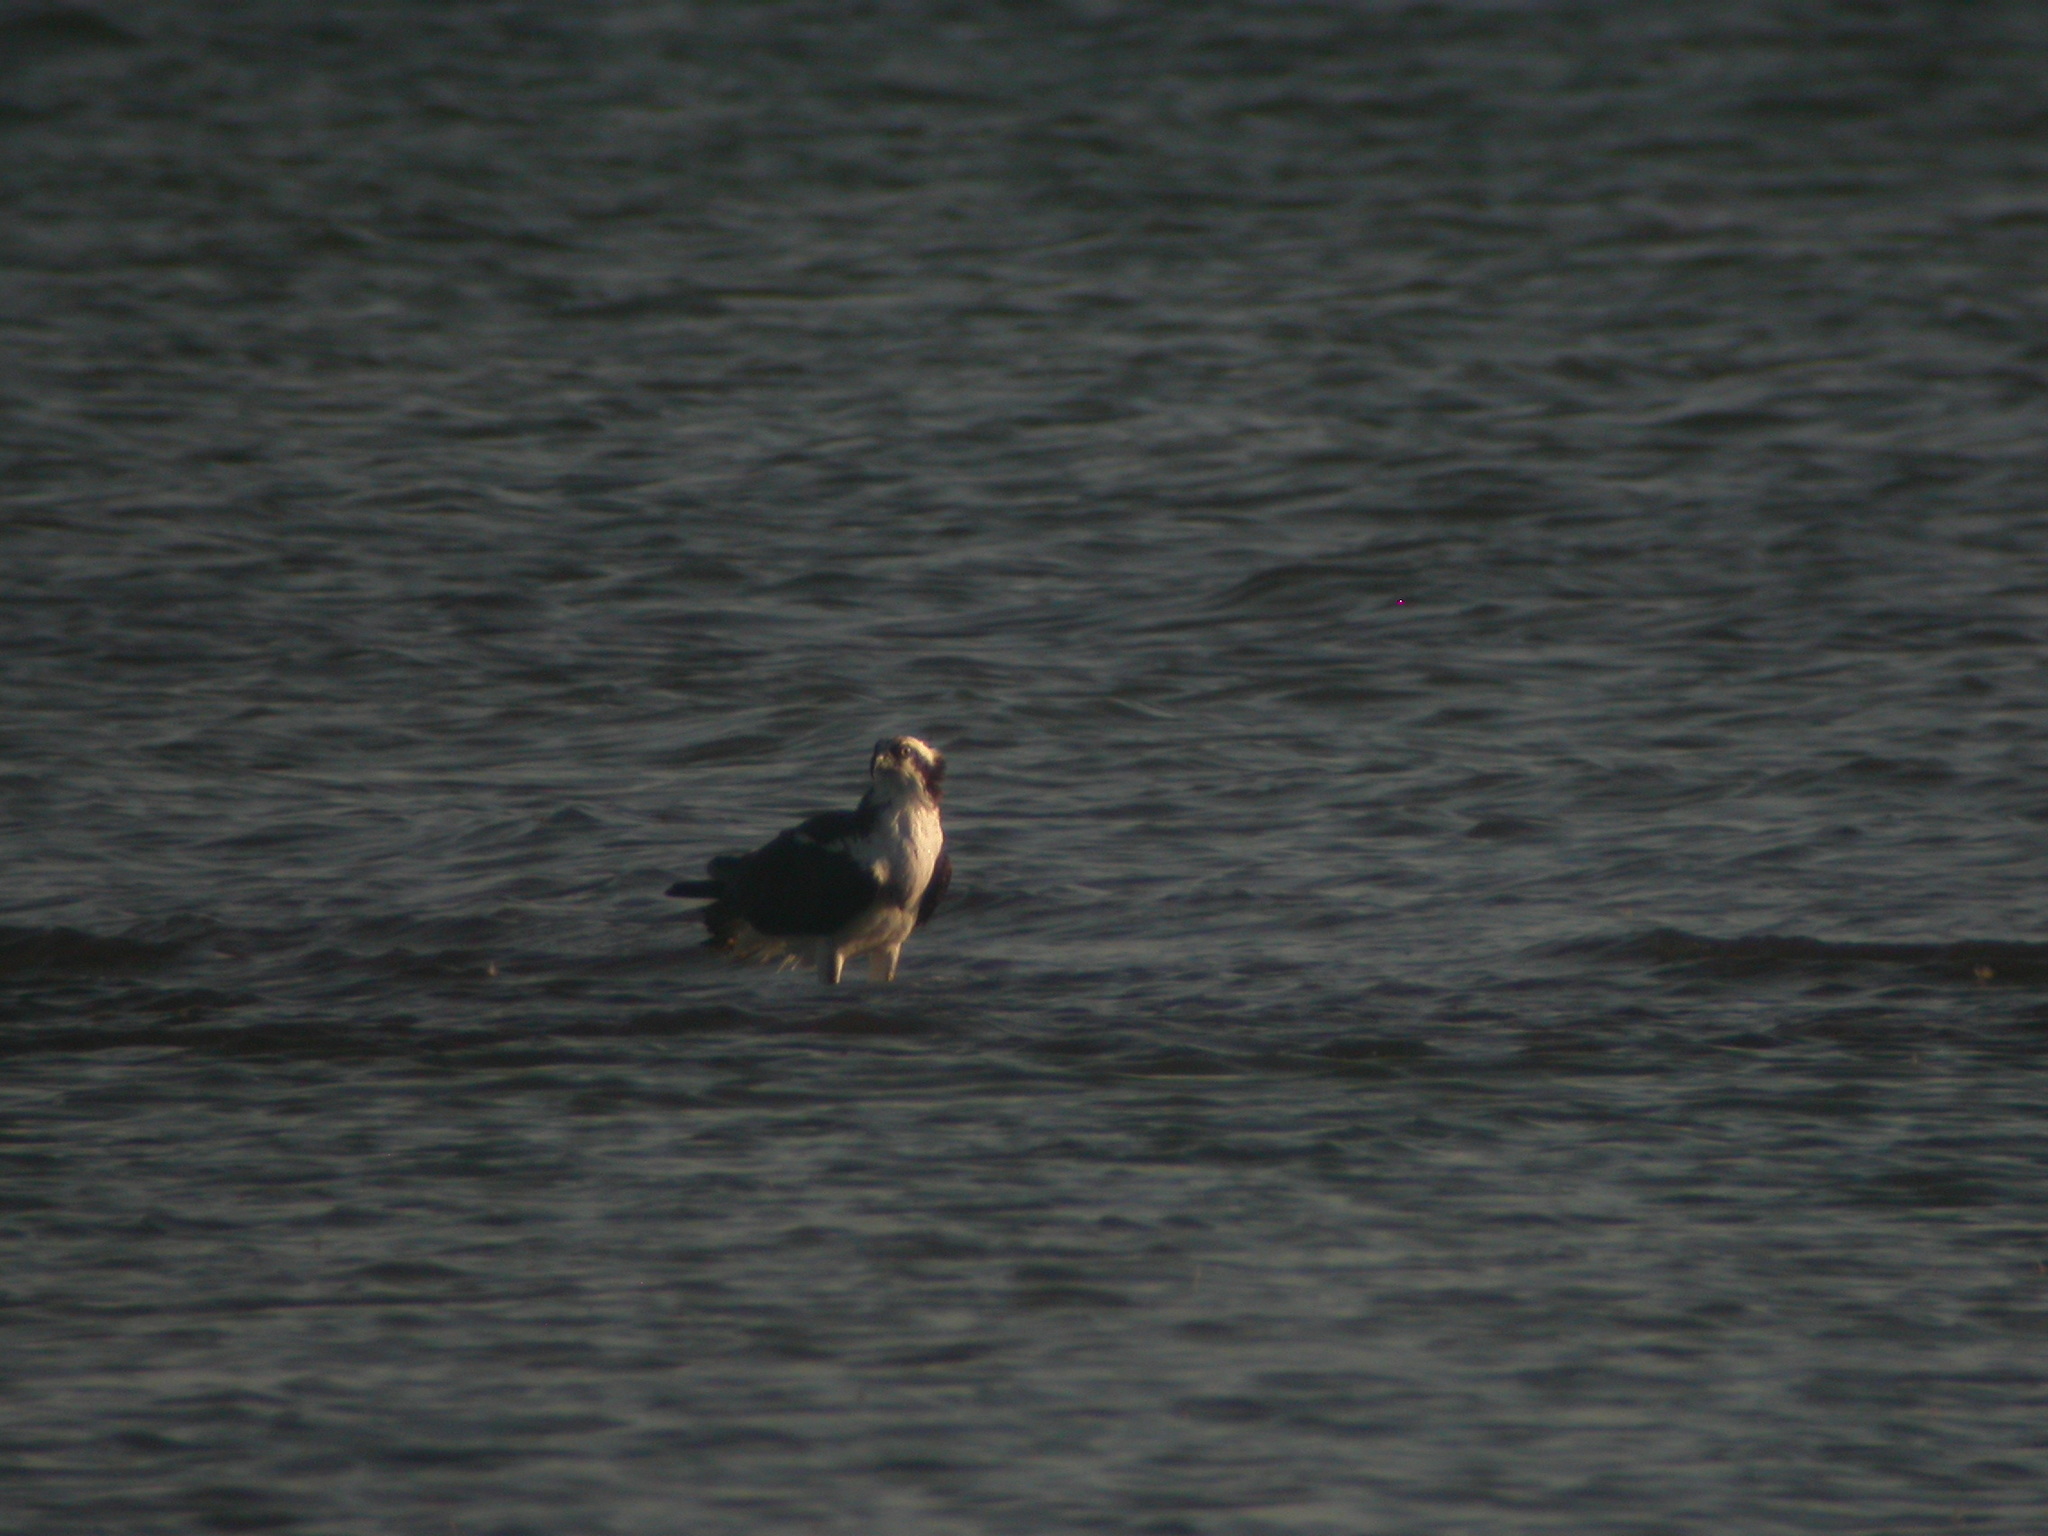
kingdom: Animalia
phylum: Chordata
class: Aves
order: Accipitriformes
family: Pandionidae
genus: Pandion
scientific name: Pandion haliaetus
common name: Osprey
